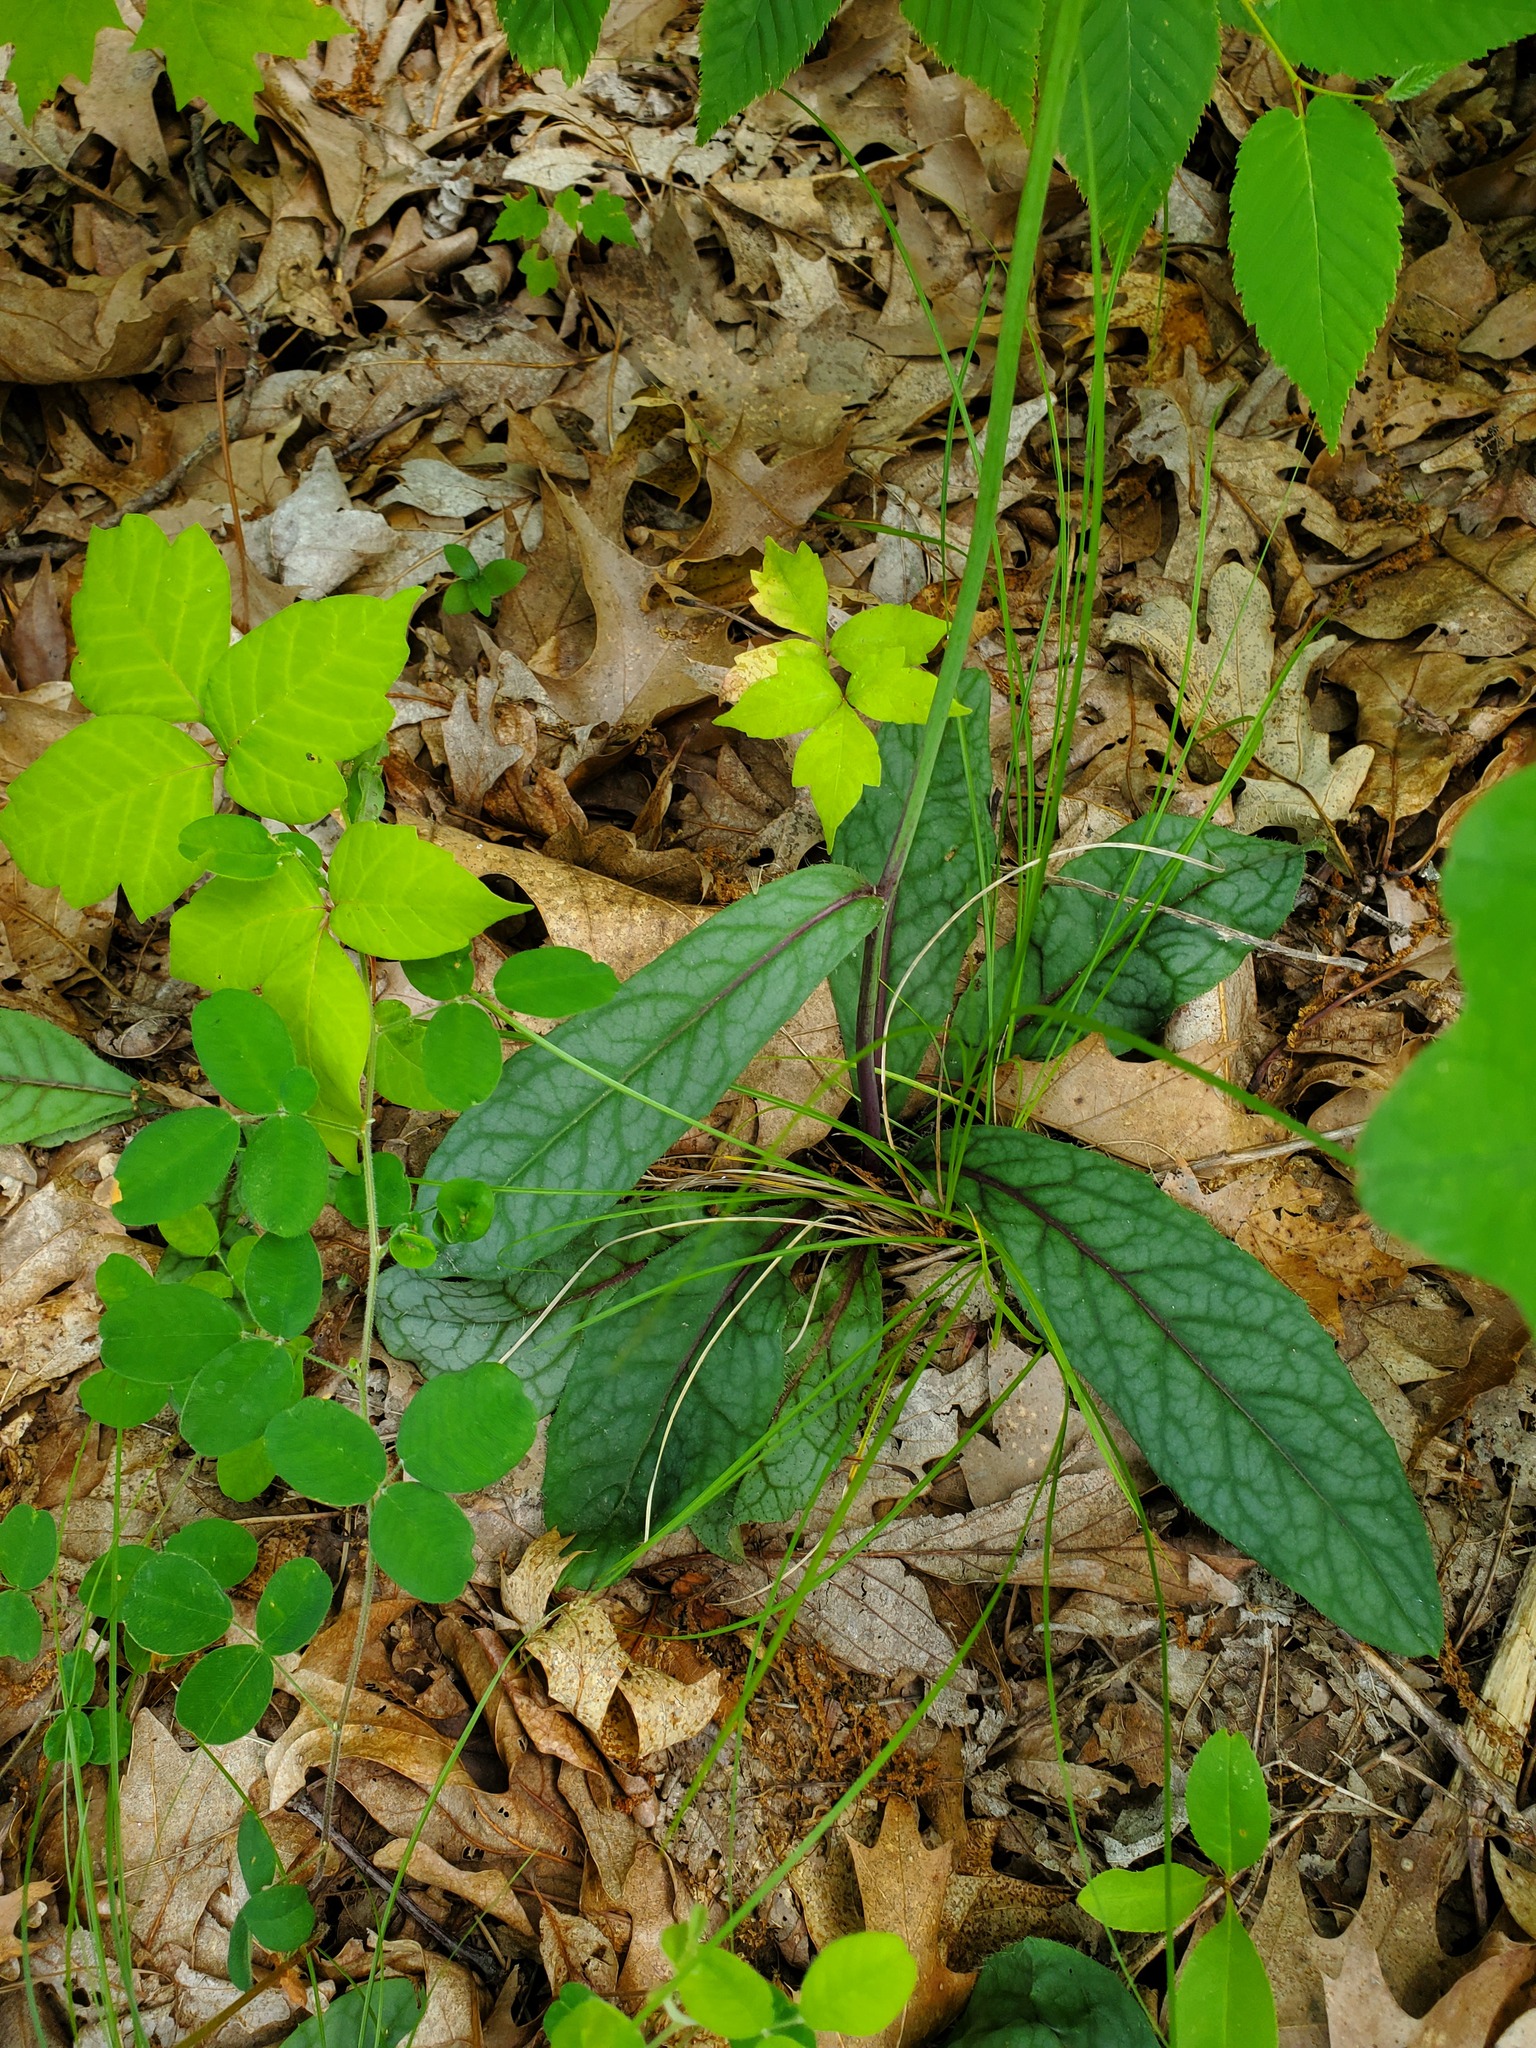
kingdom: Plantae
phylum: Tracheophyta
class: Magnoliopsida
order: Asterales
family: Asteraceae
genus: Hieracium
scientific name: Hieracium venosum
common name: Rattlesnake hawkweed
